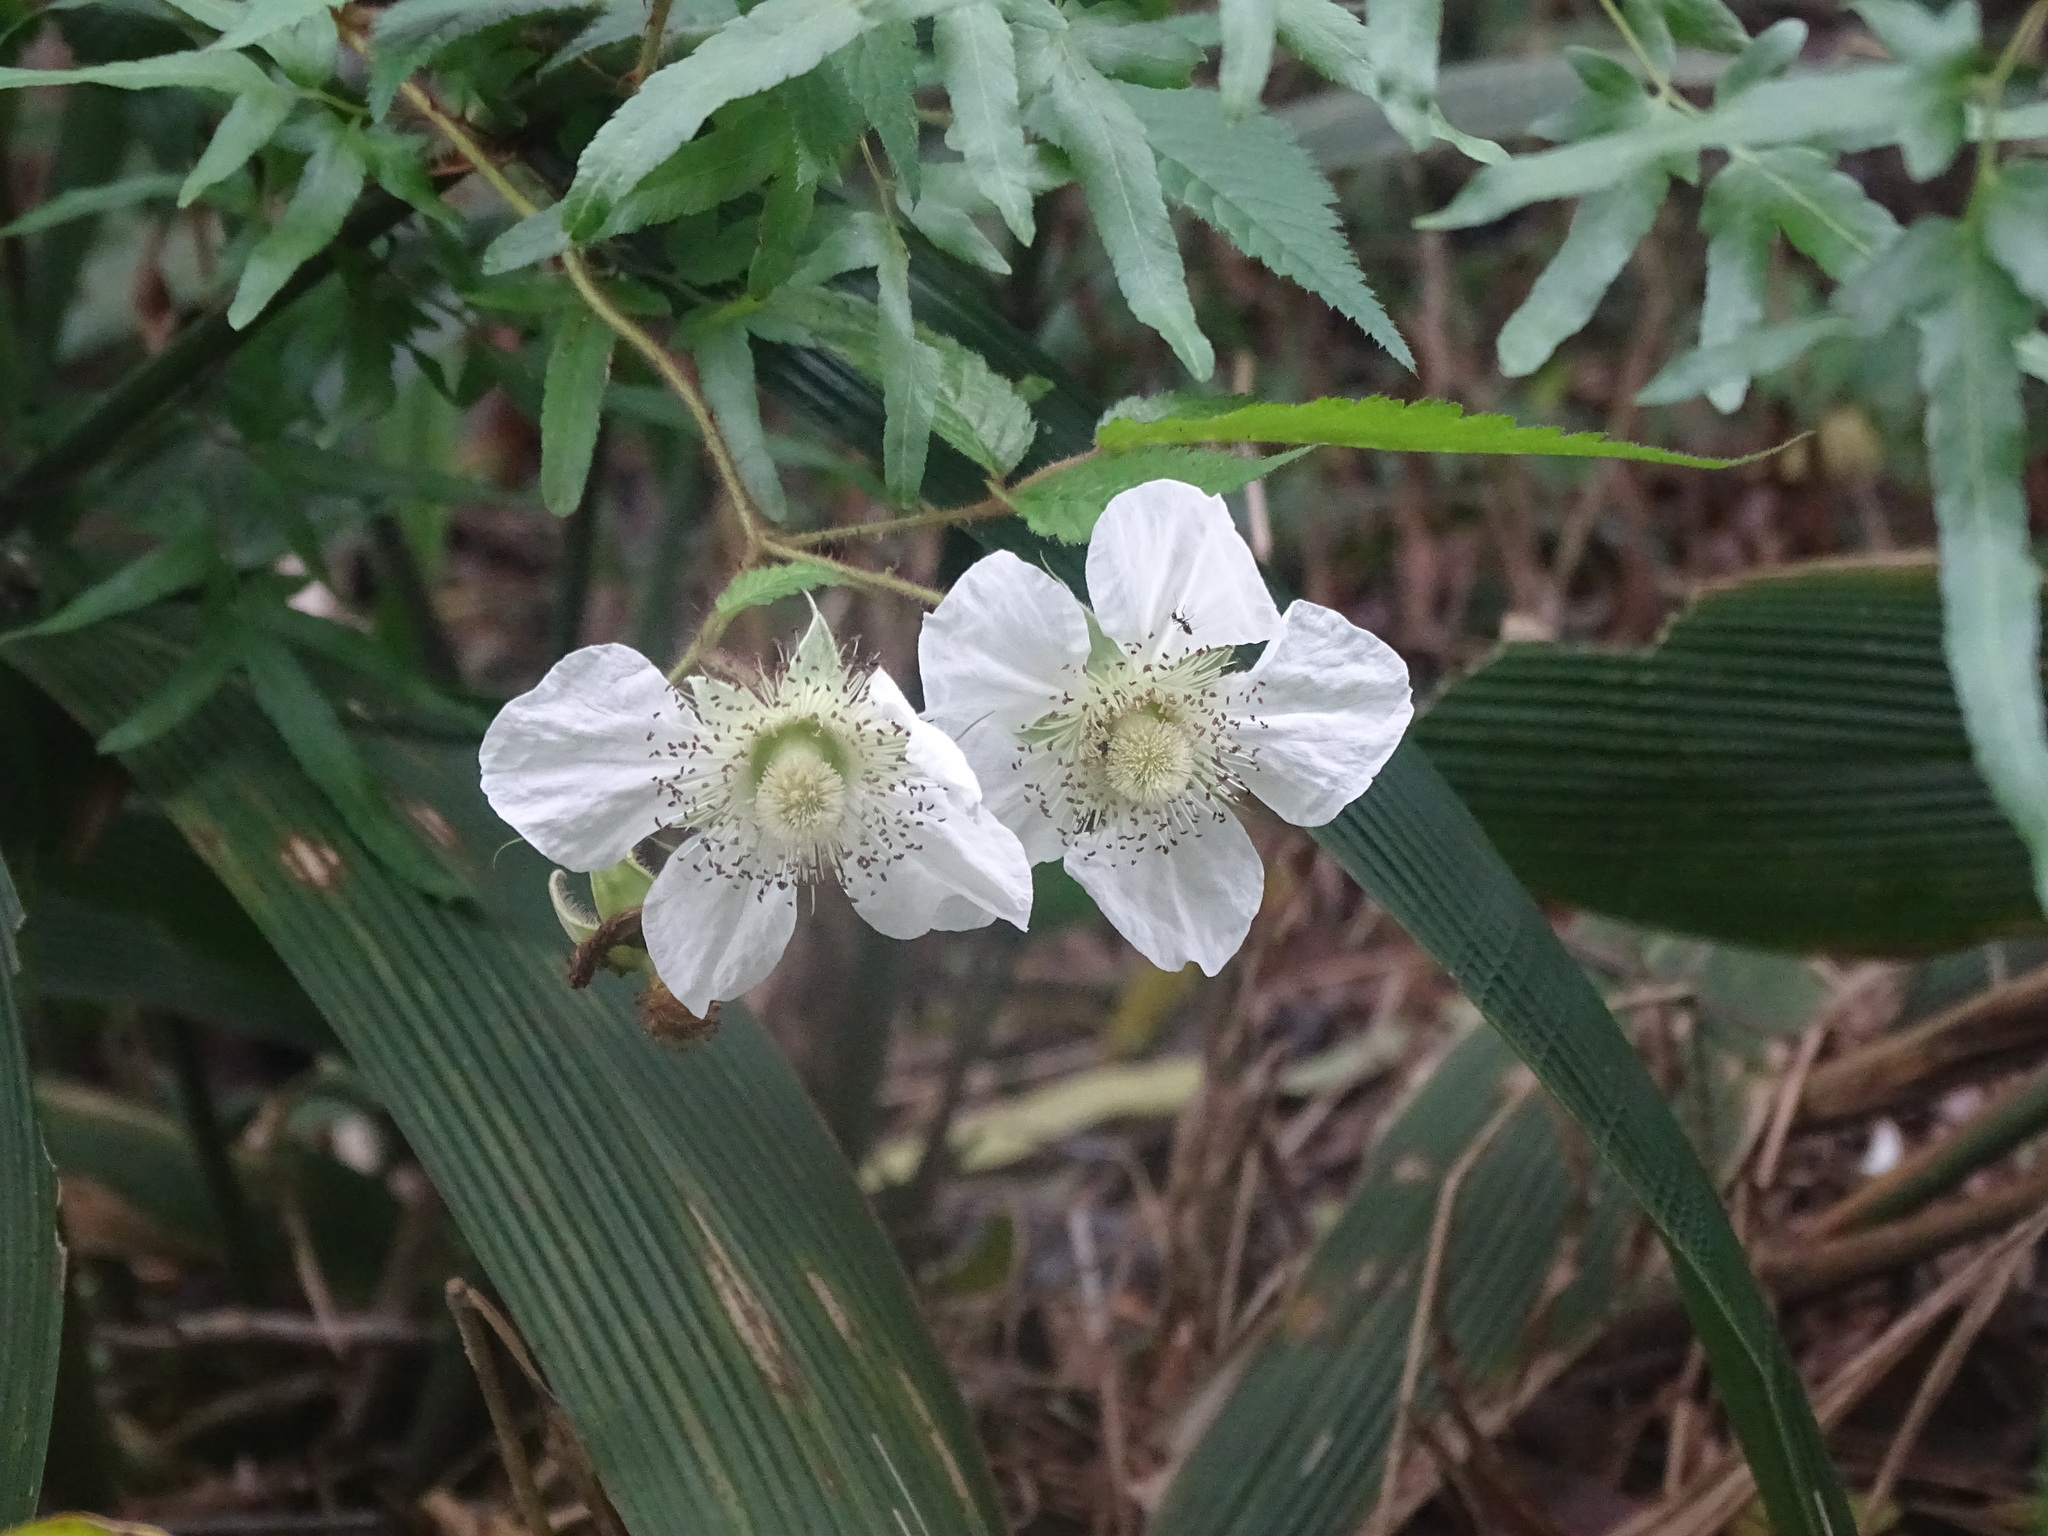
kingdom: Plantae
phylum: Tracheophyta
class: Magnoliopsida
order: Rosales
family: Rosaceae
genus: Rubus
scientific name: Rubus croceacanthus
